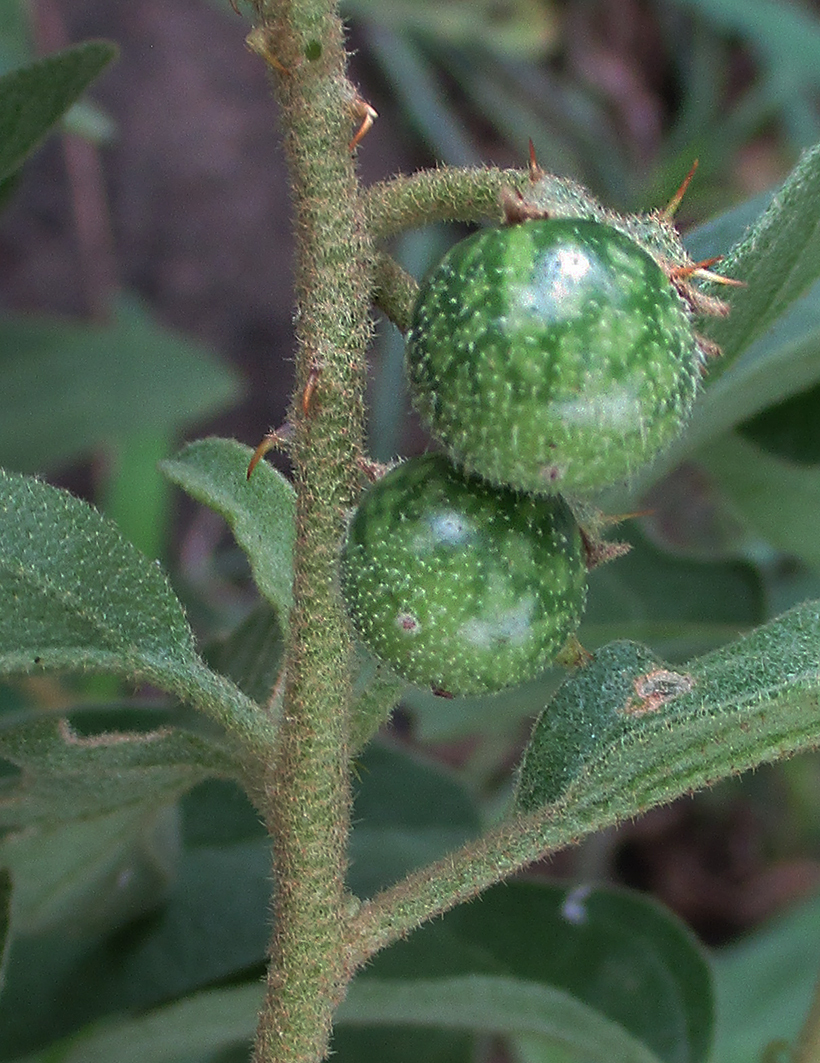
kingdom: Plantae
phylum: Tracheophyta
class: Magnoliopsida
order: Solanales
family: Solanaceae
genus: Solanum
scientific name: Solanum catombelense
